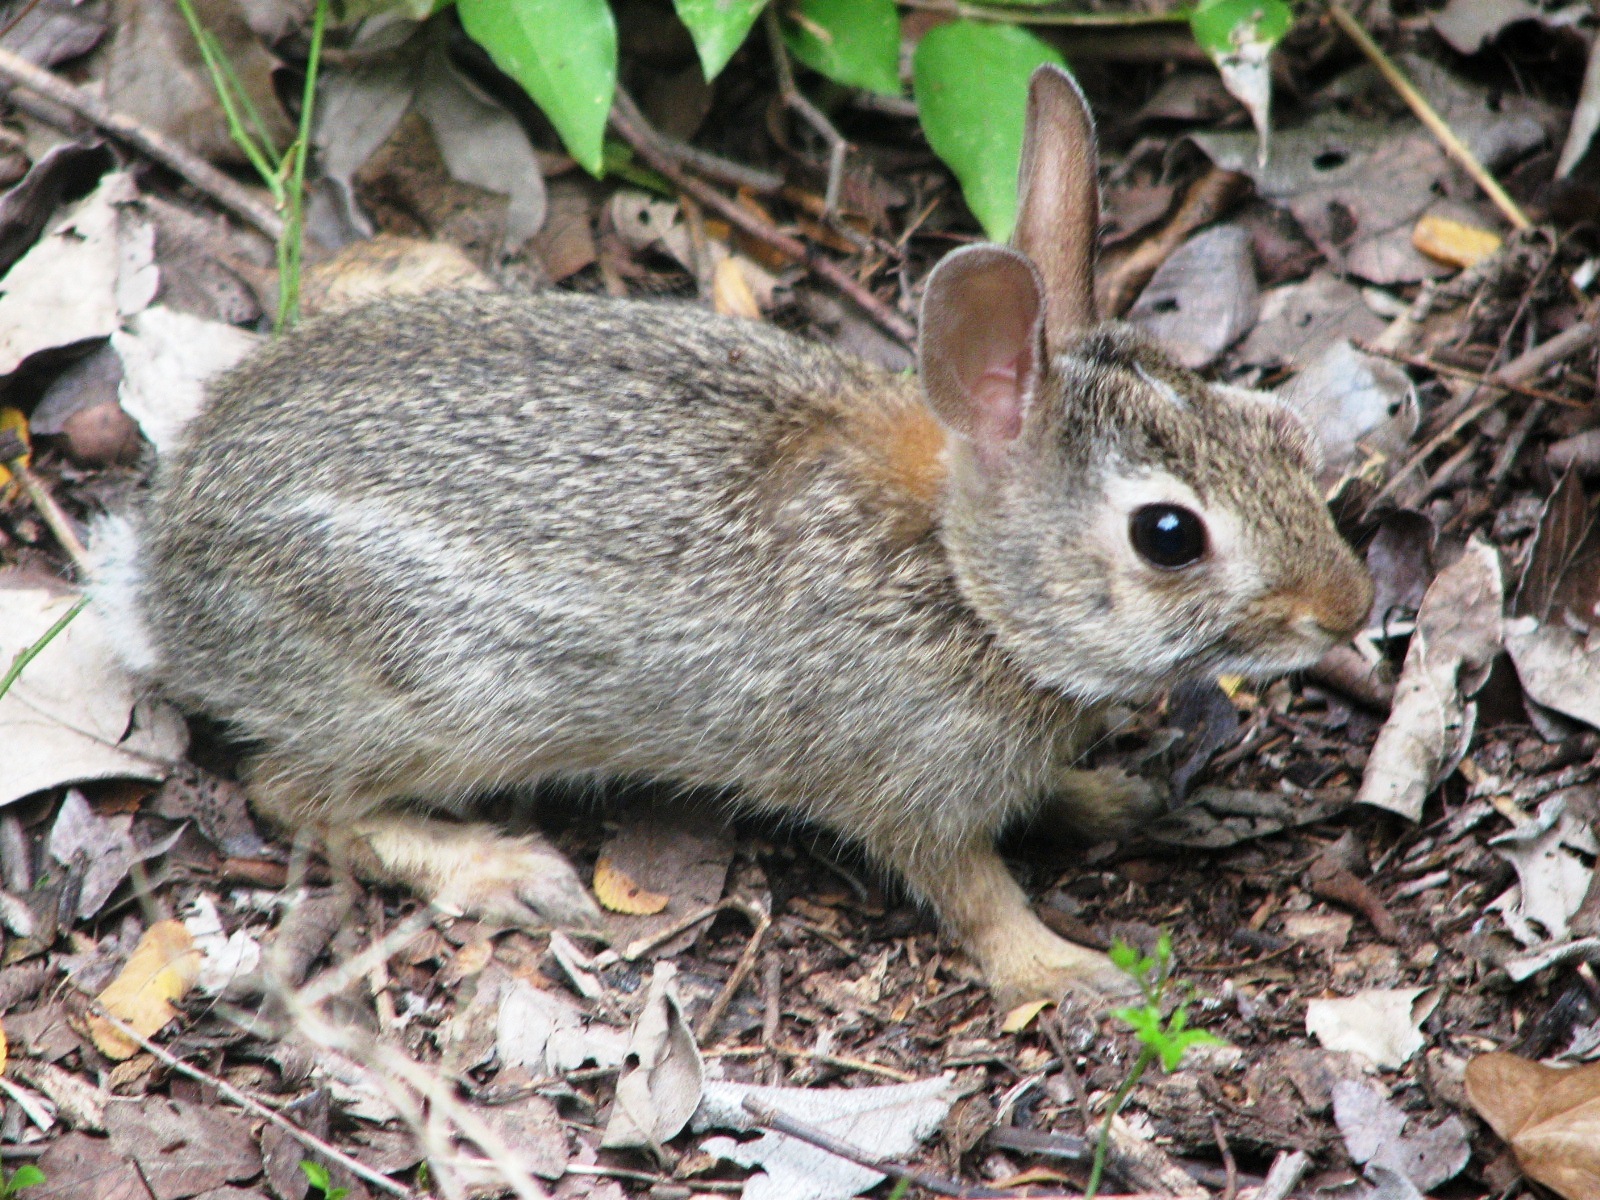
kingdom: Animalia
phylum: Chordata
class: Mammalia
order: Lagomorpha
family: Leporidae
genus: Sylvilagus
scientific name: Sylvilagus floridanus
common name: Eastern cottontail
